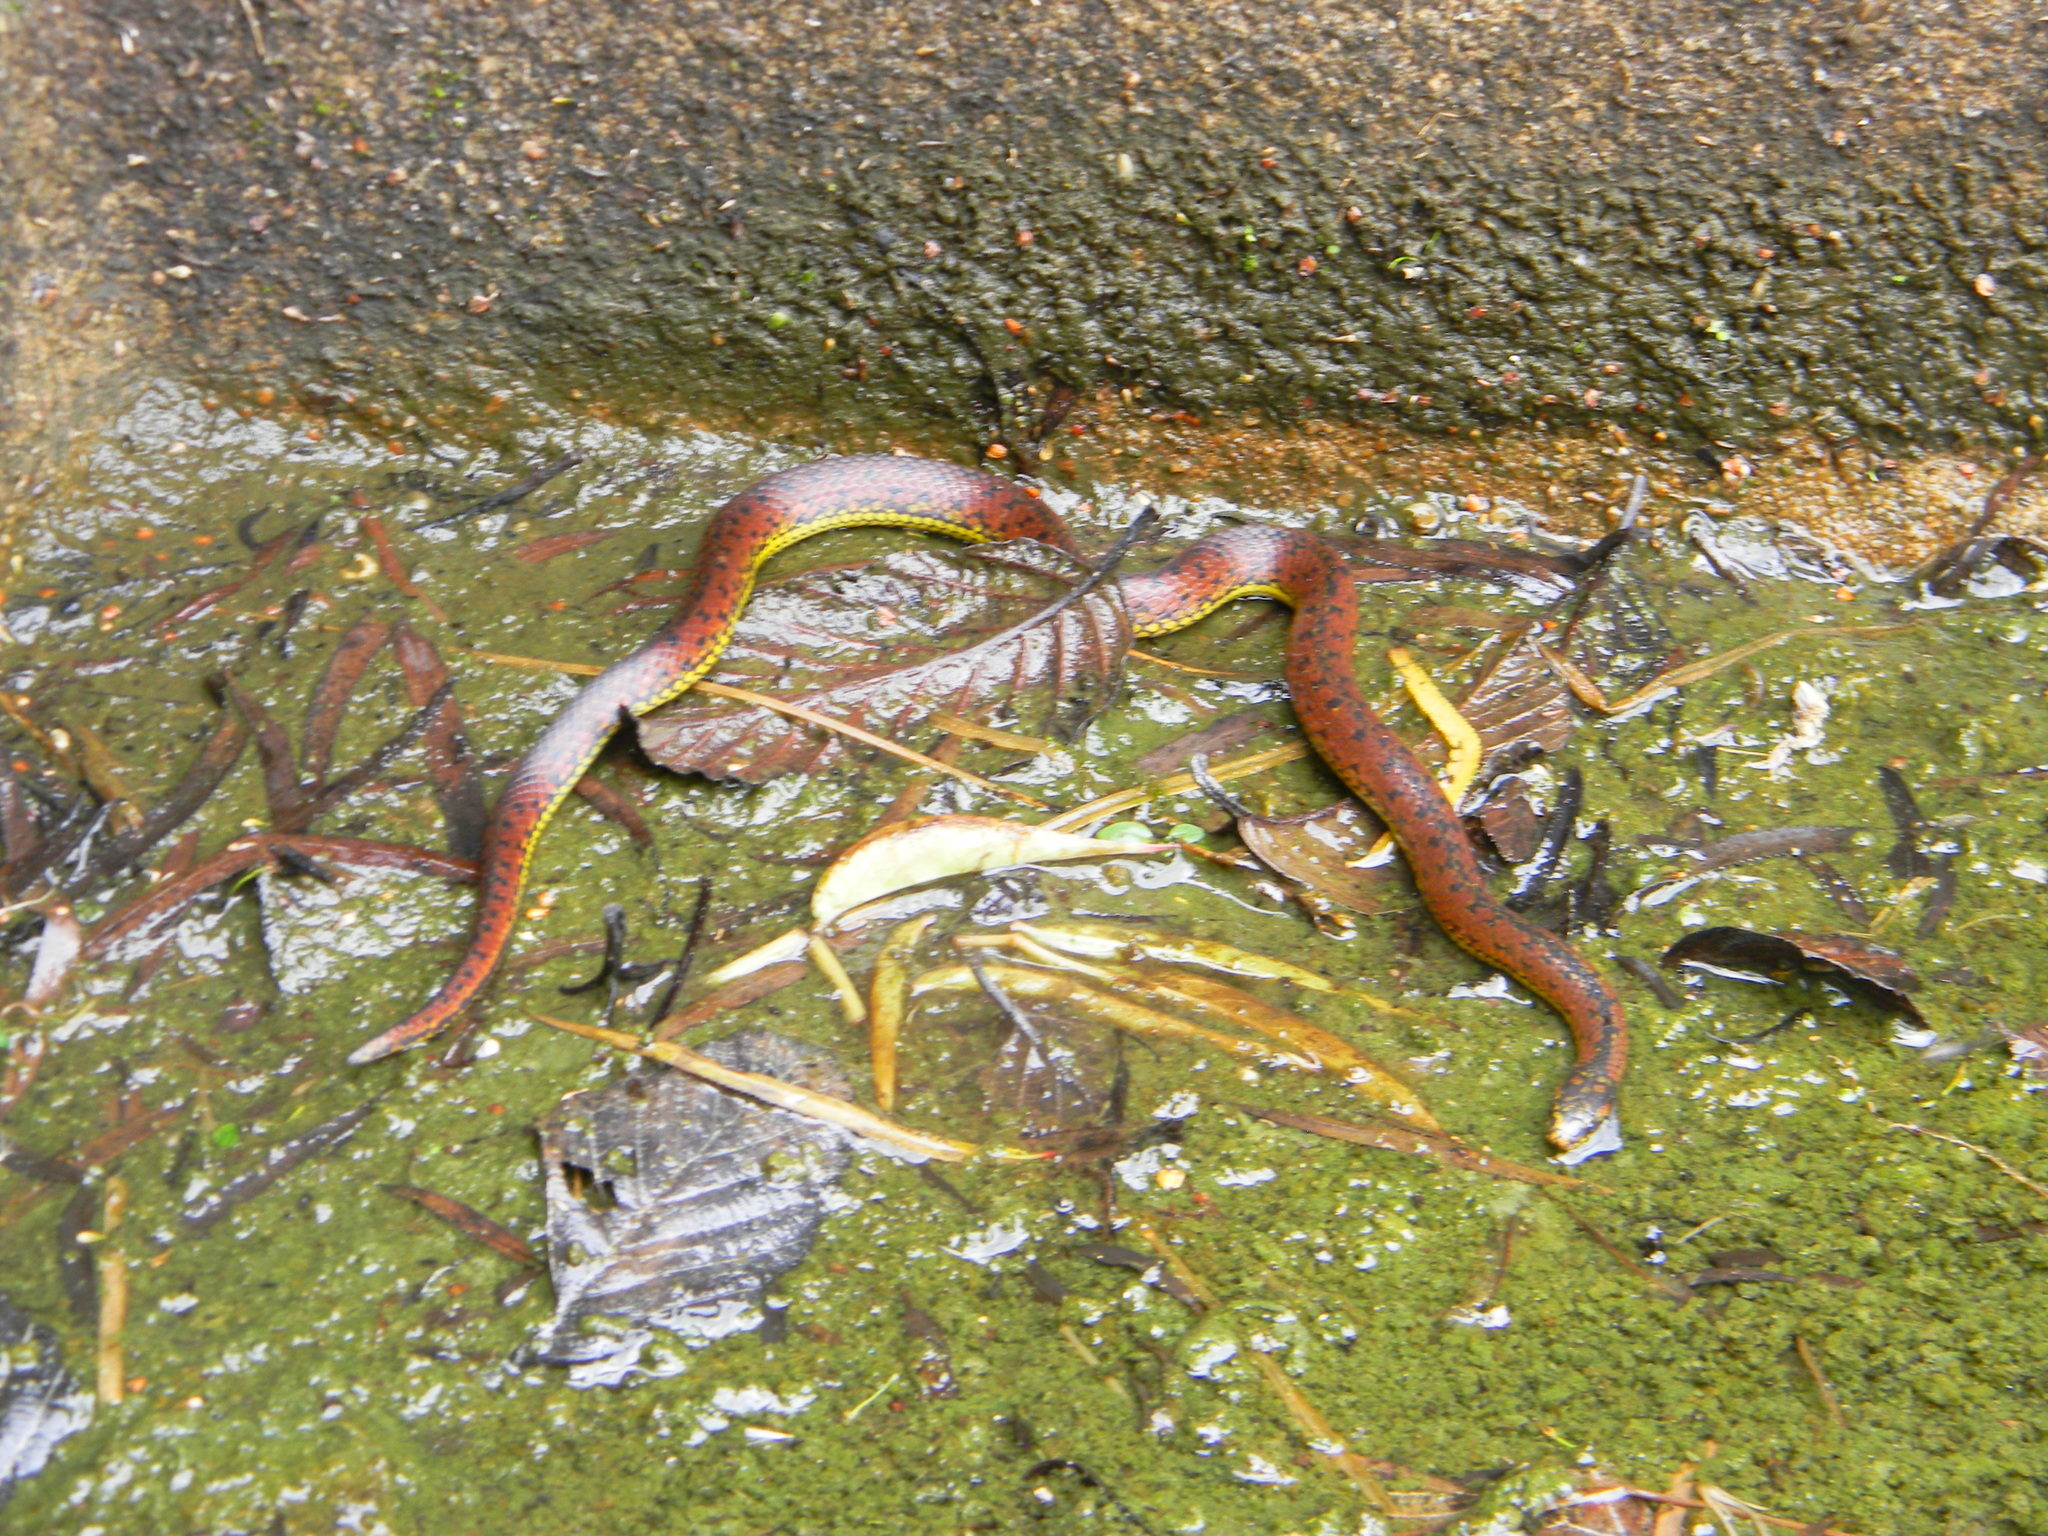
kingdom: Animalia
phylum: Chordata
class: Squamata
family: Colubridae
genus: Atractus
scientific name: Atractus wagleri
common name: Wagler's ground snake
